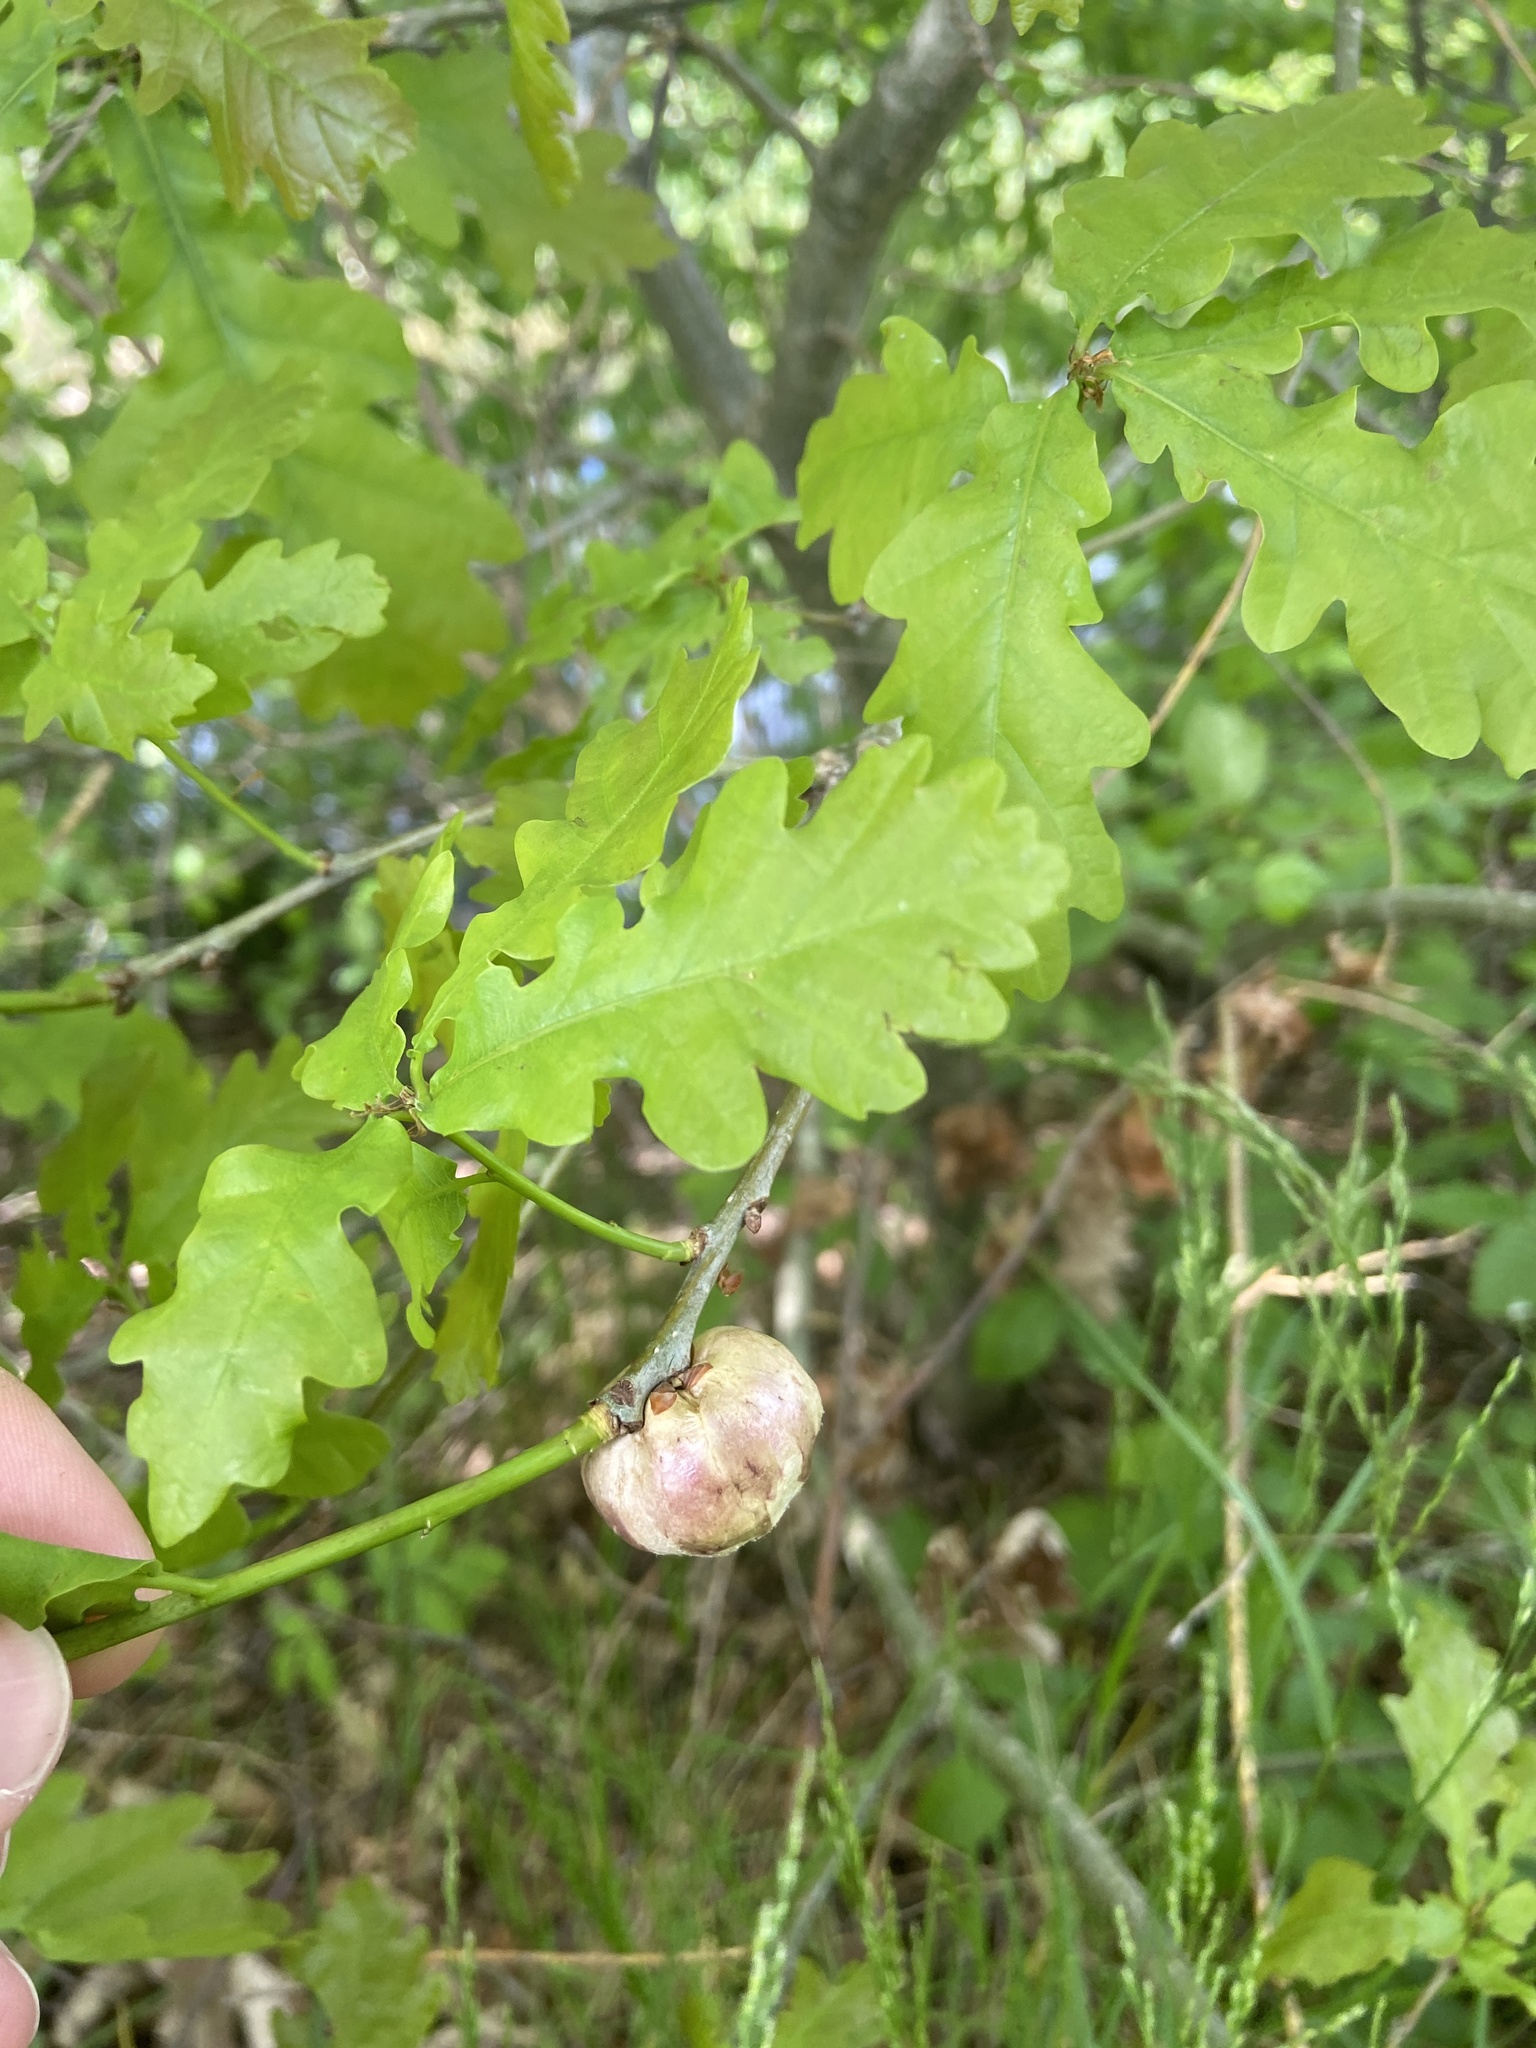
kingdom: Animalia
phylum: Arthropoda
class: Insecta
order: Hymenoptera
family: Cynipidae
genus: Biorhiza
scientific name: Biorhiza pallida
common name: Oak apple
